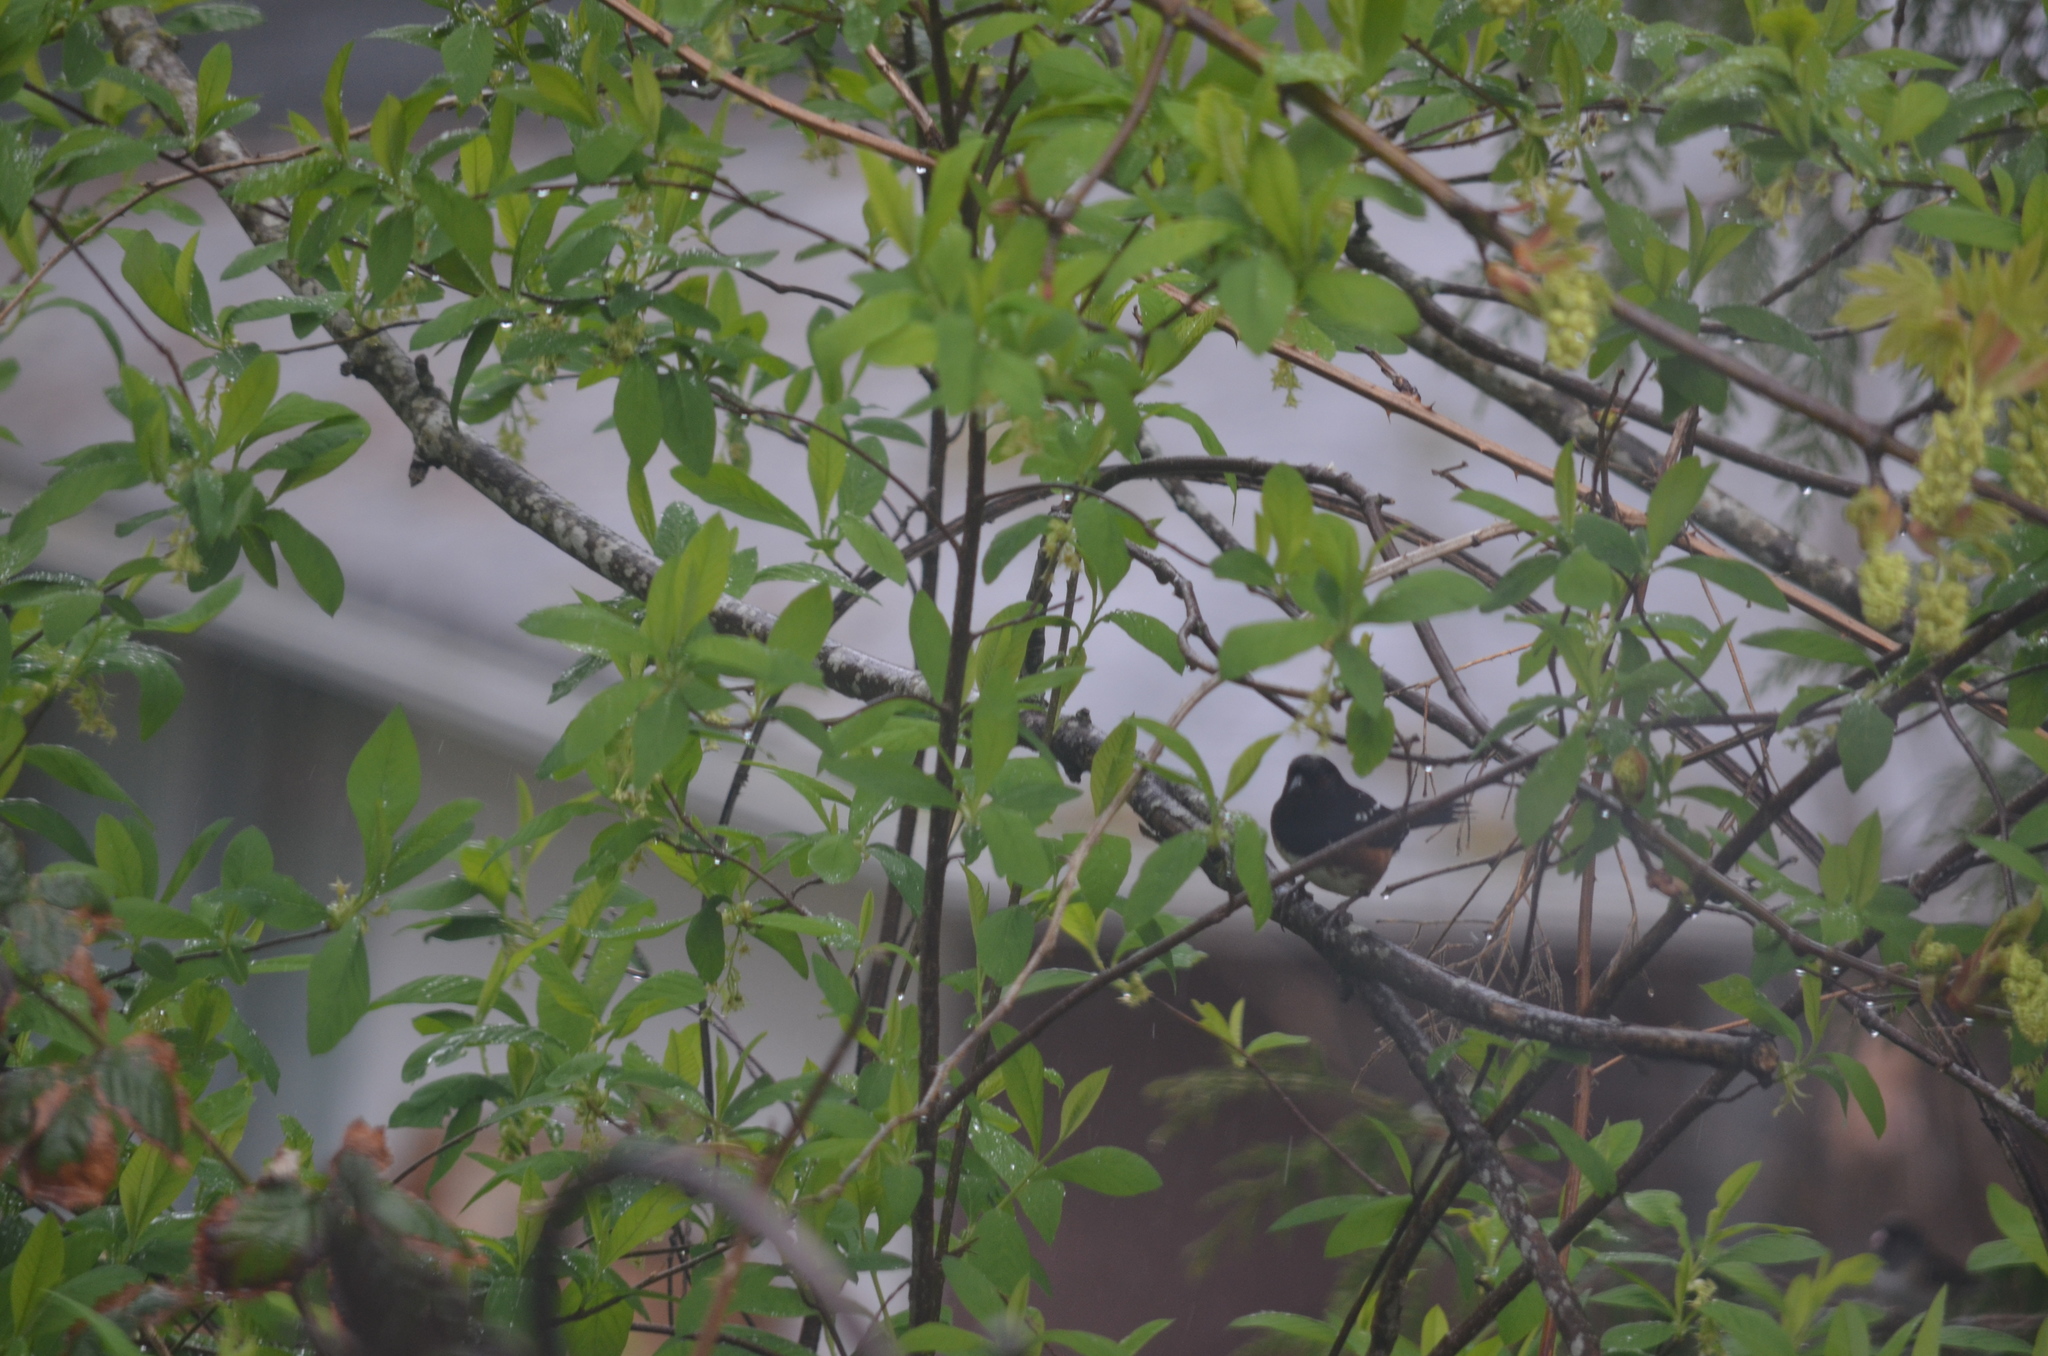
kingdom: Animalia
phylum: Chordata
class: Aves
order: Passeriformes
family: Passerellidae
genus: Junco
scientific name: Junco hyemalis
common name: Dark-eyed junco
